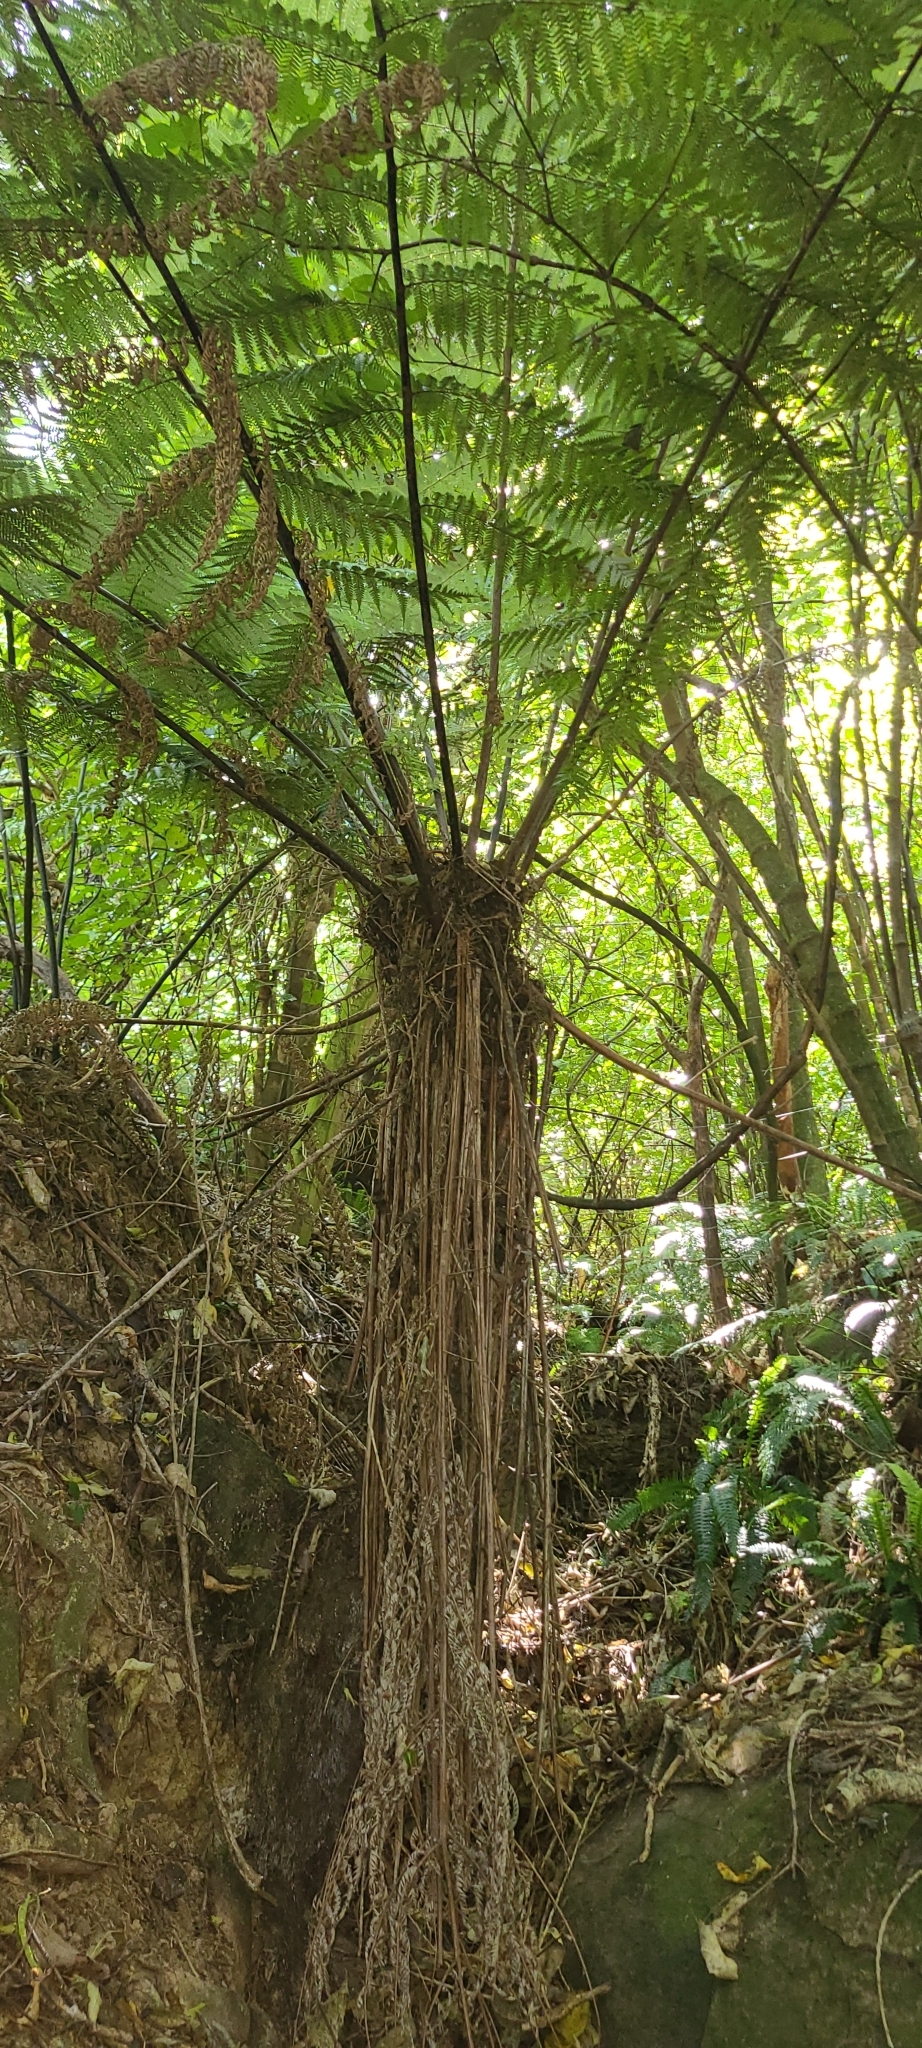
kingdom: Plantae
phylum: Tracheophyta
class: Polypodiopsida
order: Cyatheales
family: Cyatheaceae
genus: Alsophila
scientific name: Alsophila smithii
